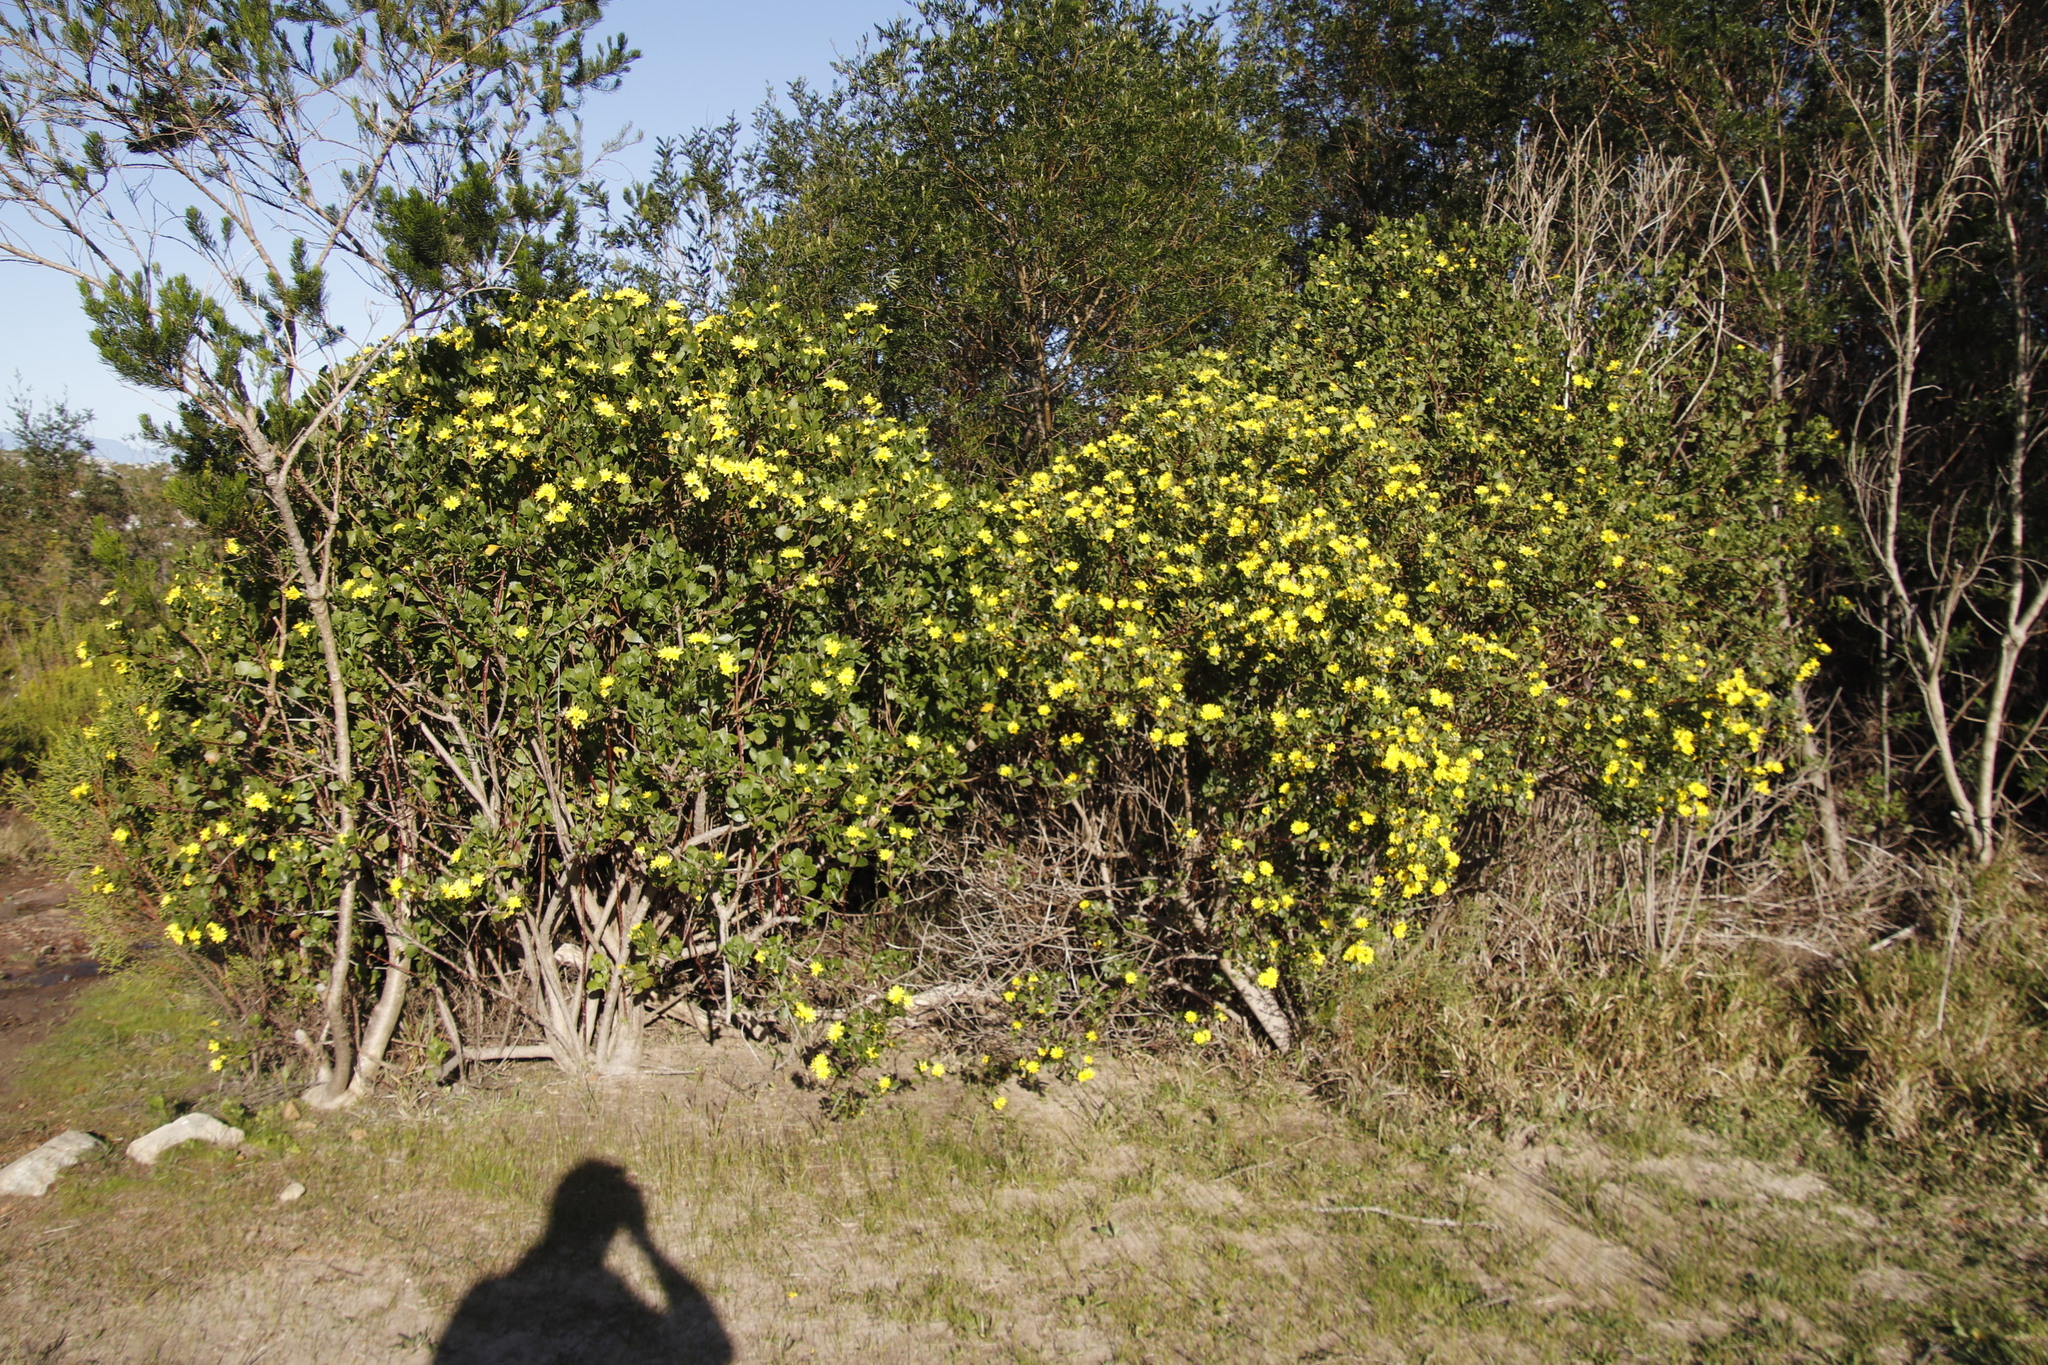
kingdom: Plantae
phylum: Tracheophyta
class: Magnoliopsida
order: Asterales
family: Asteraceae
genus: Osteospermum
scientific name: Osteospermum moniliferum
